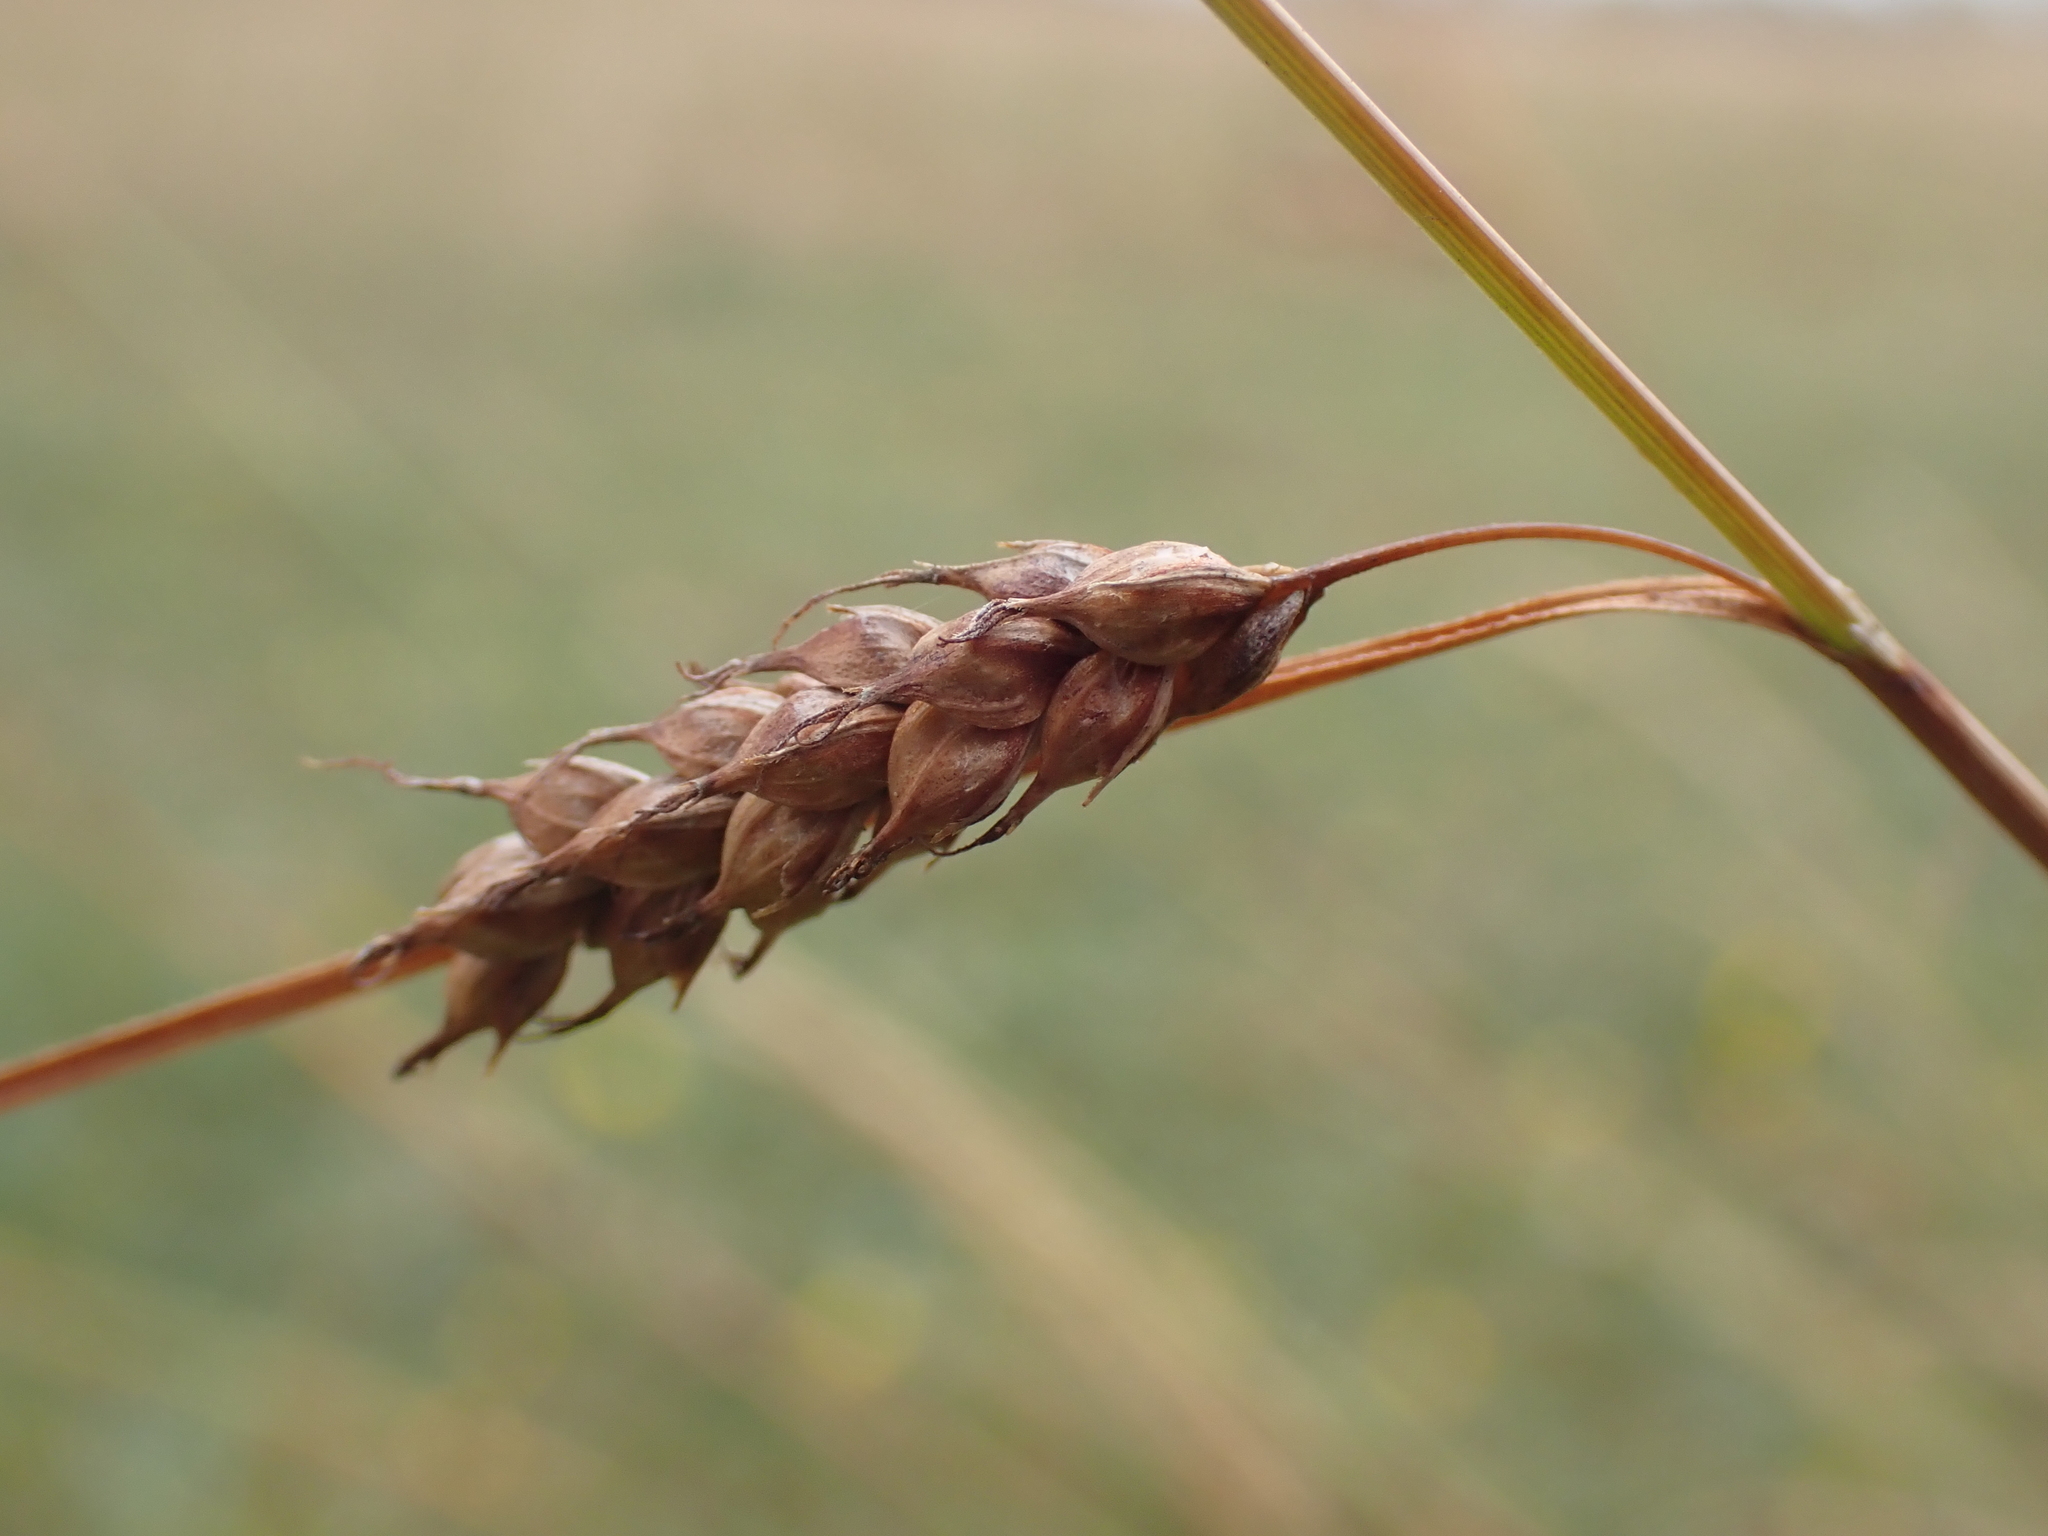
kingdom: Plantae
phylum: Tracheophyta
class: Liliopsida
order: Poales
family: Cyperaceae
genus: Carex
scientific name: Carex distans
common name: Distant sedge
